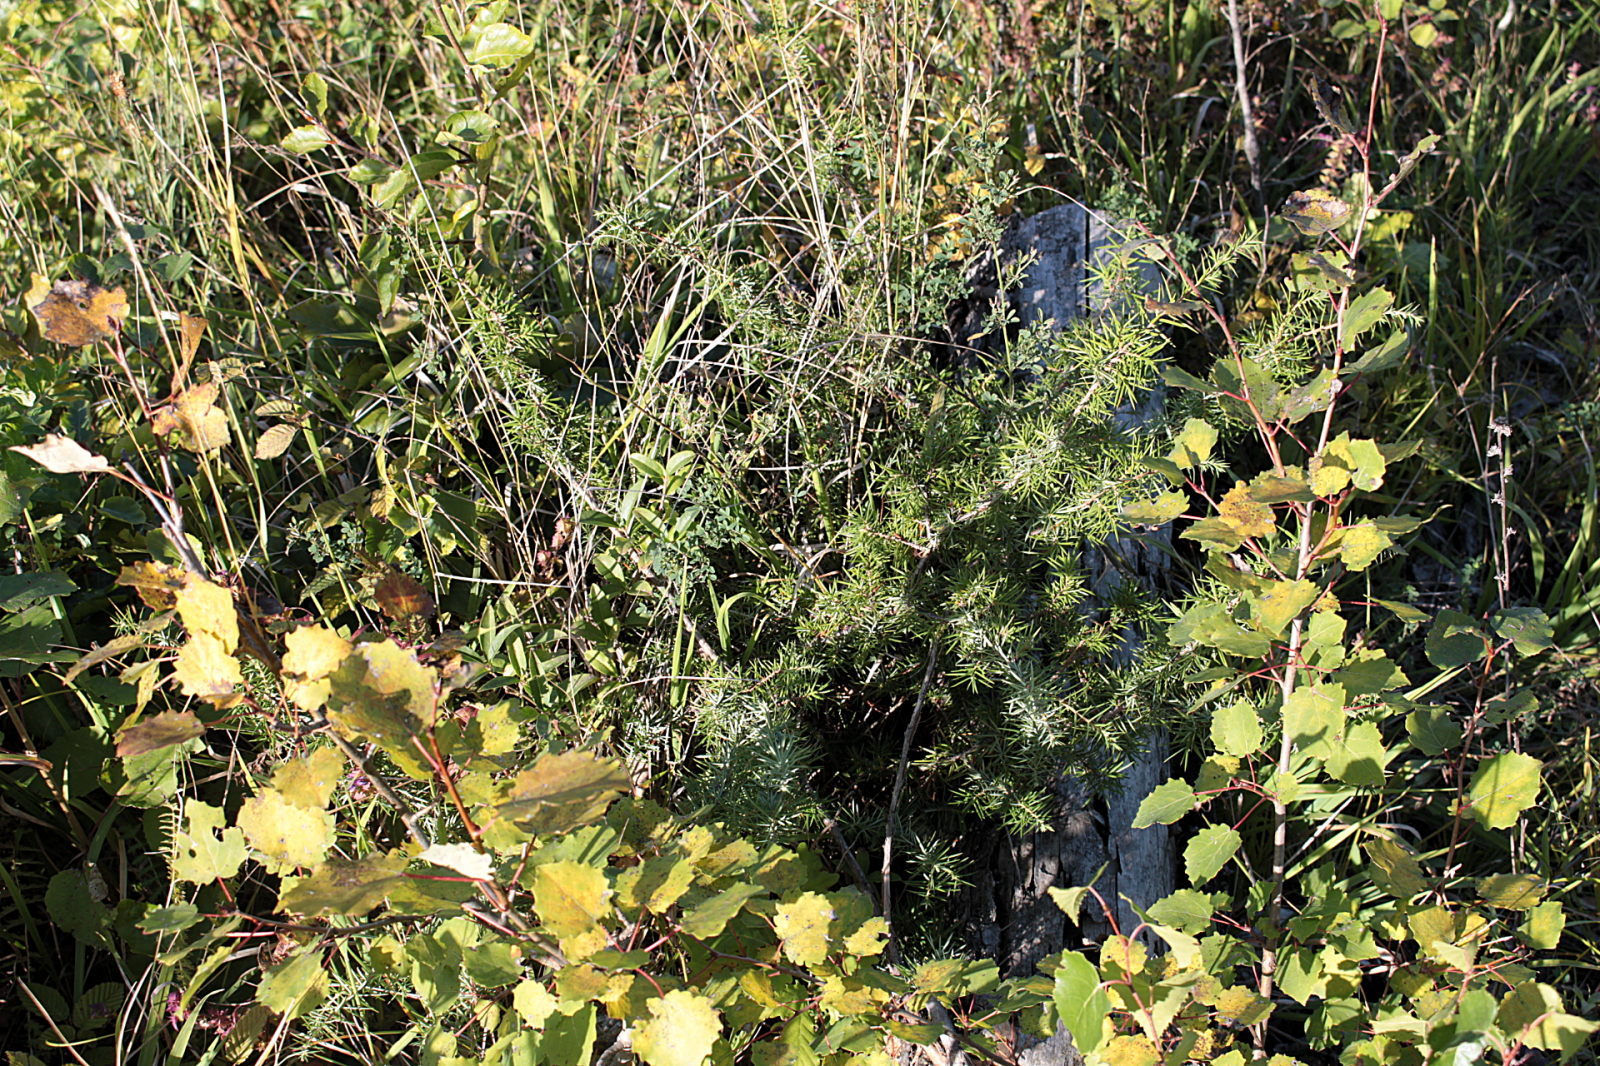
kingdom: Plantae
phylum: Tracheophyta
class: Pinopsida
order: Pinales
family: Cupressaceae
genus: Juniperus
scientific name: Juniperus communis
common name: Common juniper
